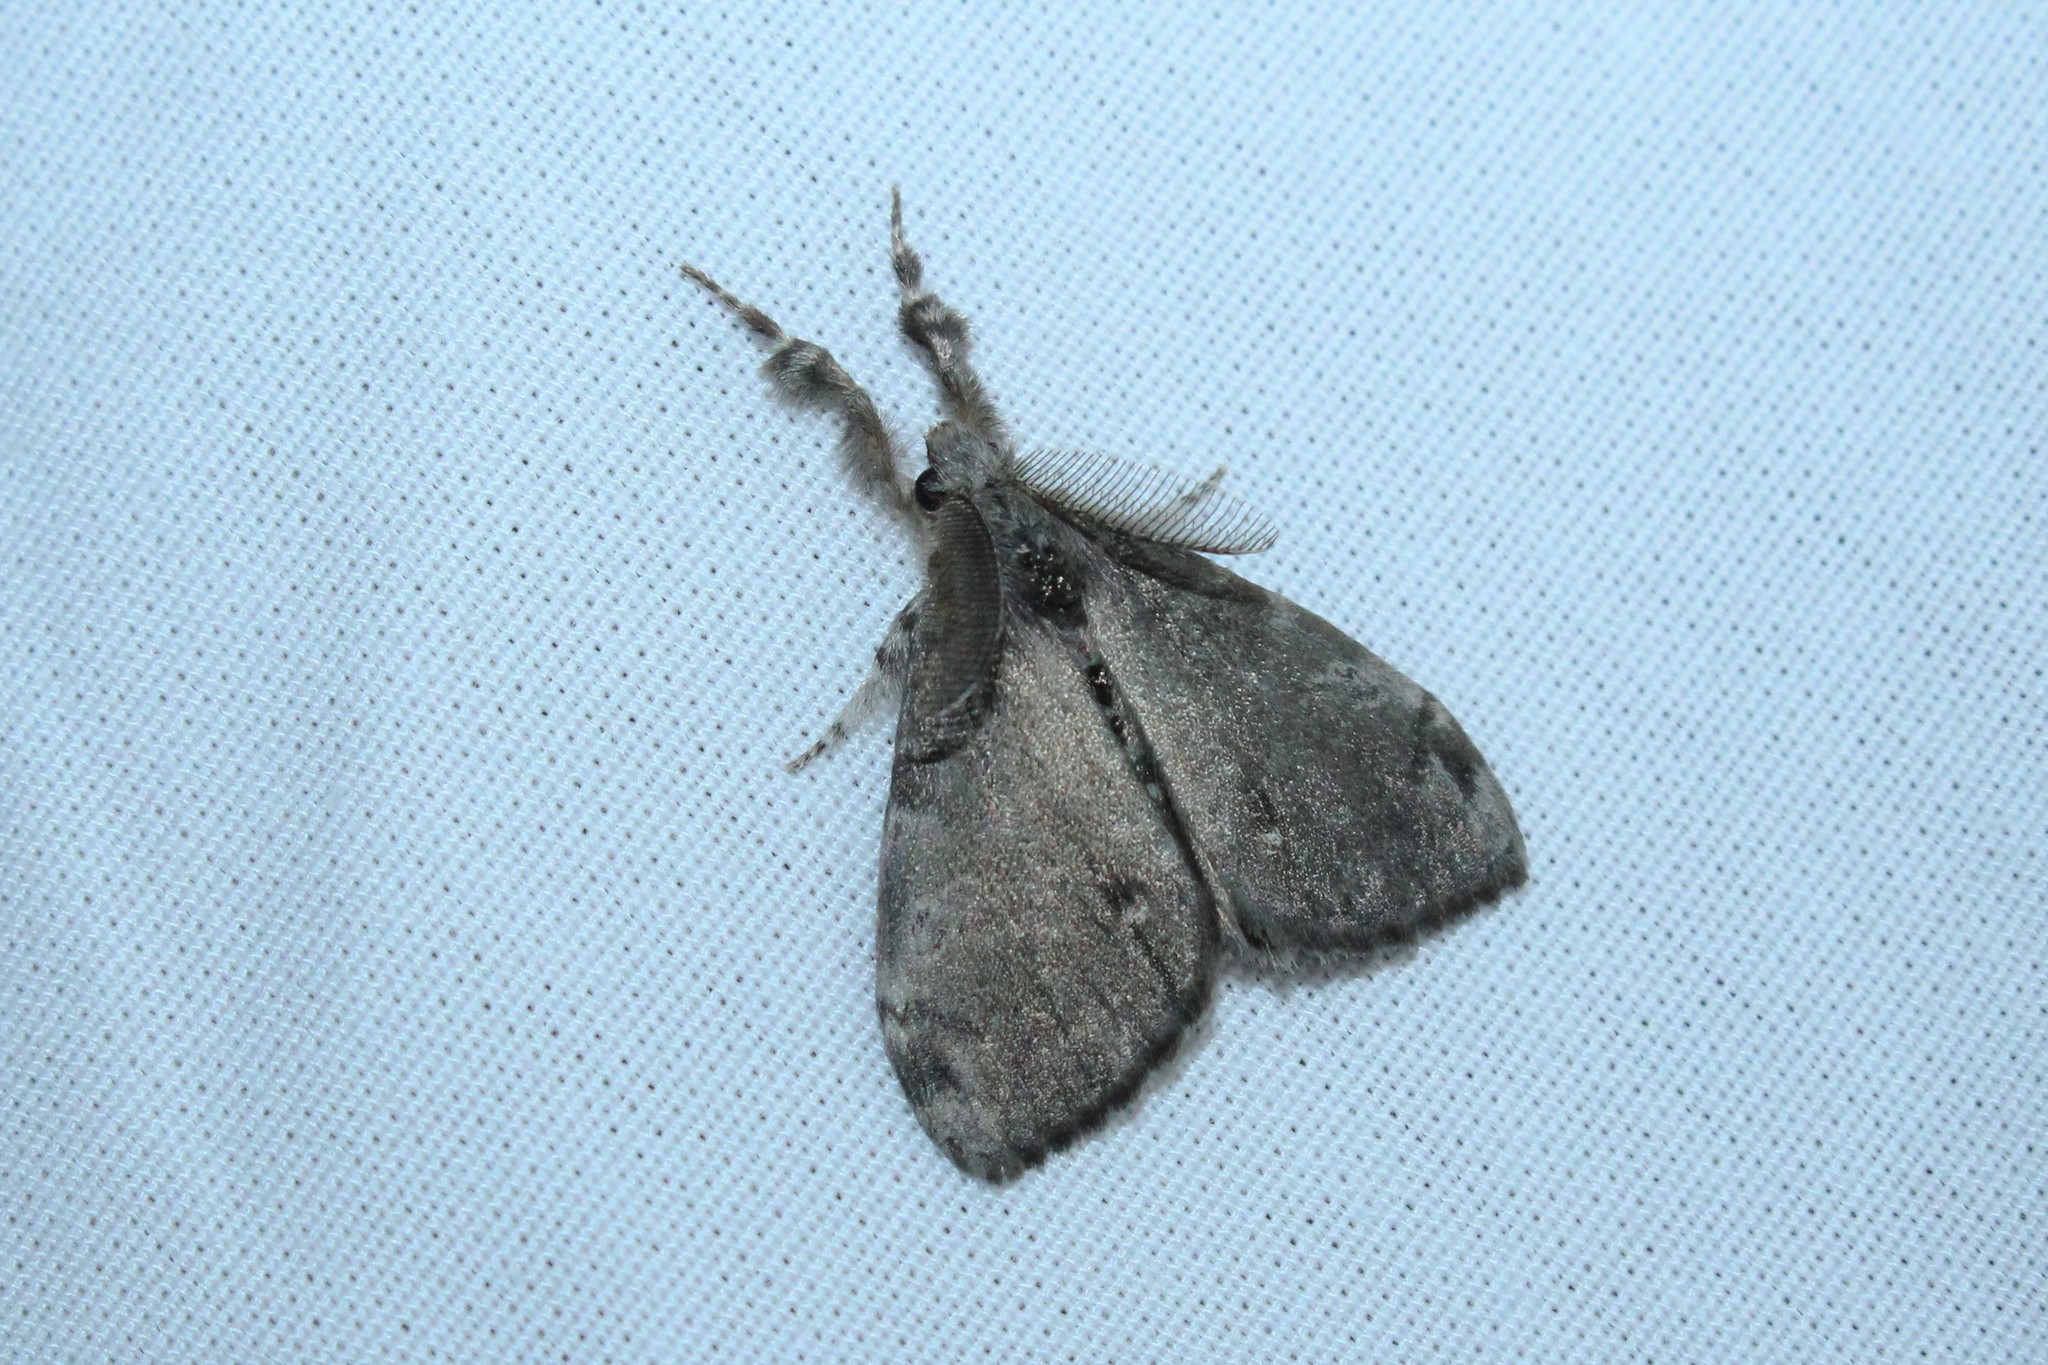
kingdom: Animalia
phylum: Arthropoda
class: Insecta
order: Lepidoptera
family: Erebidae
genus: Orgyia
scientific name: Orgyia leucostigma
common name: White-marked tussock moth
